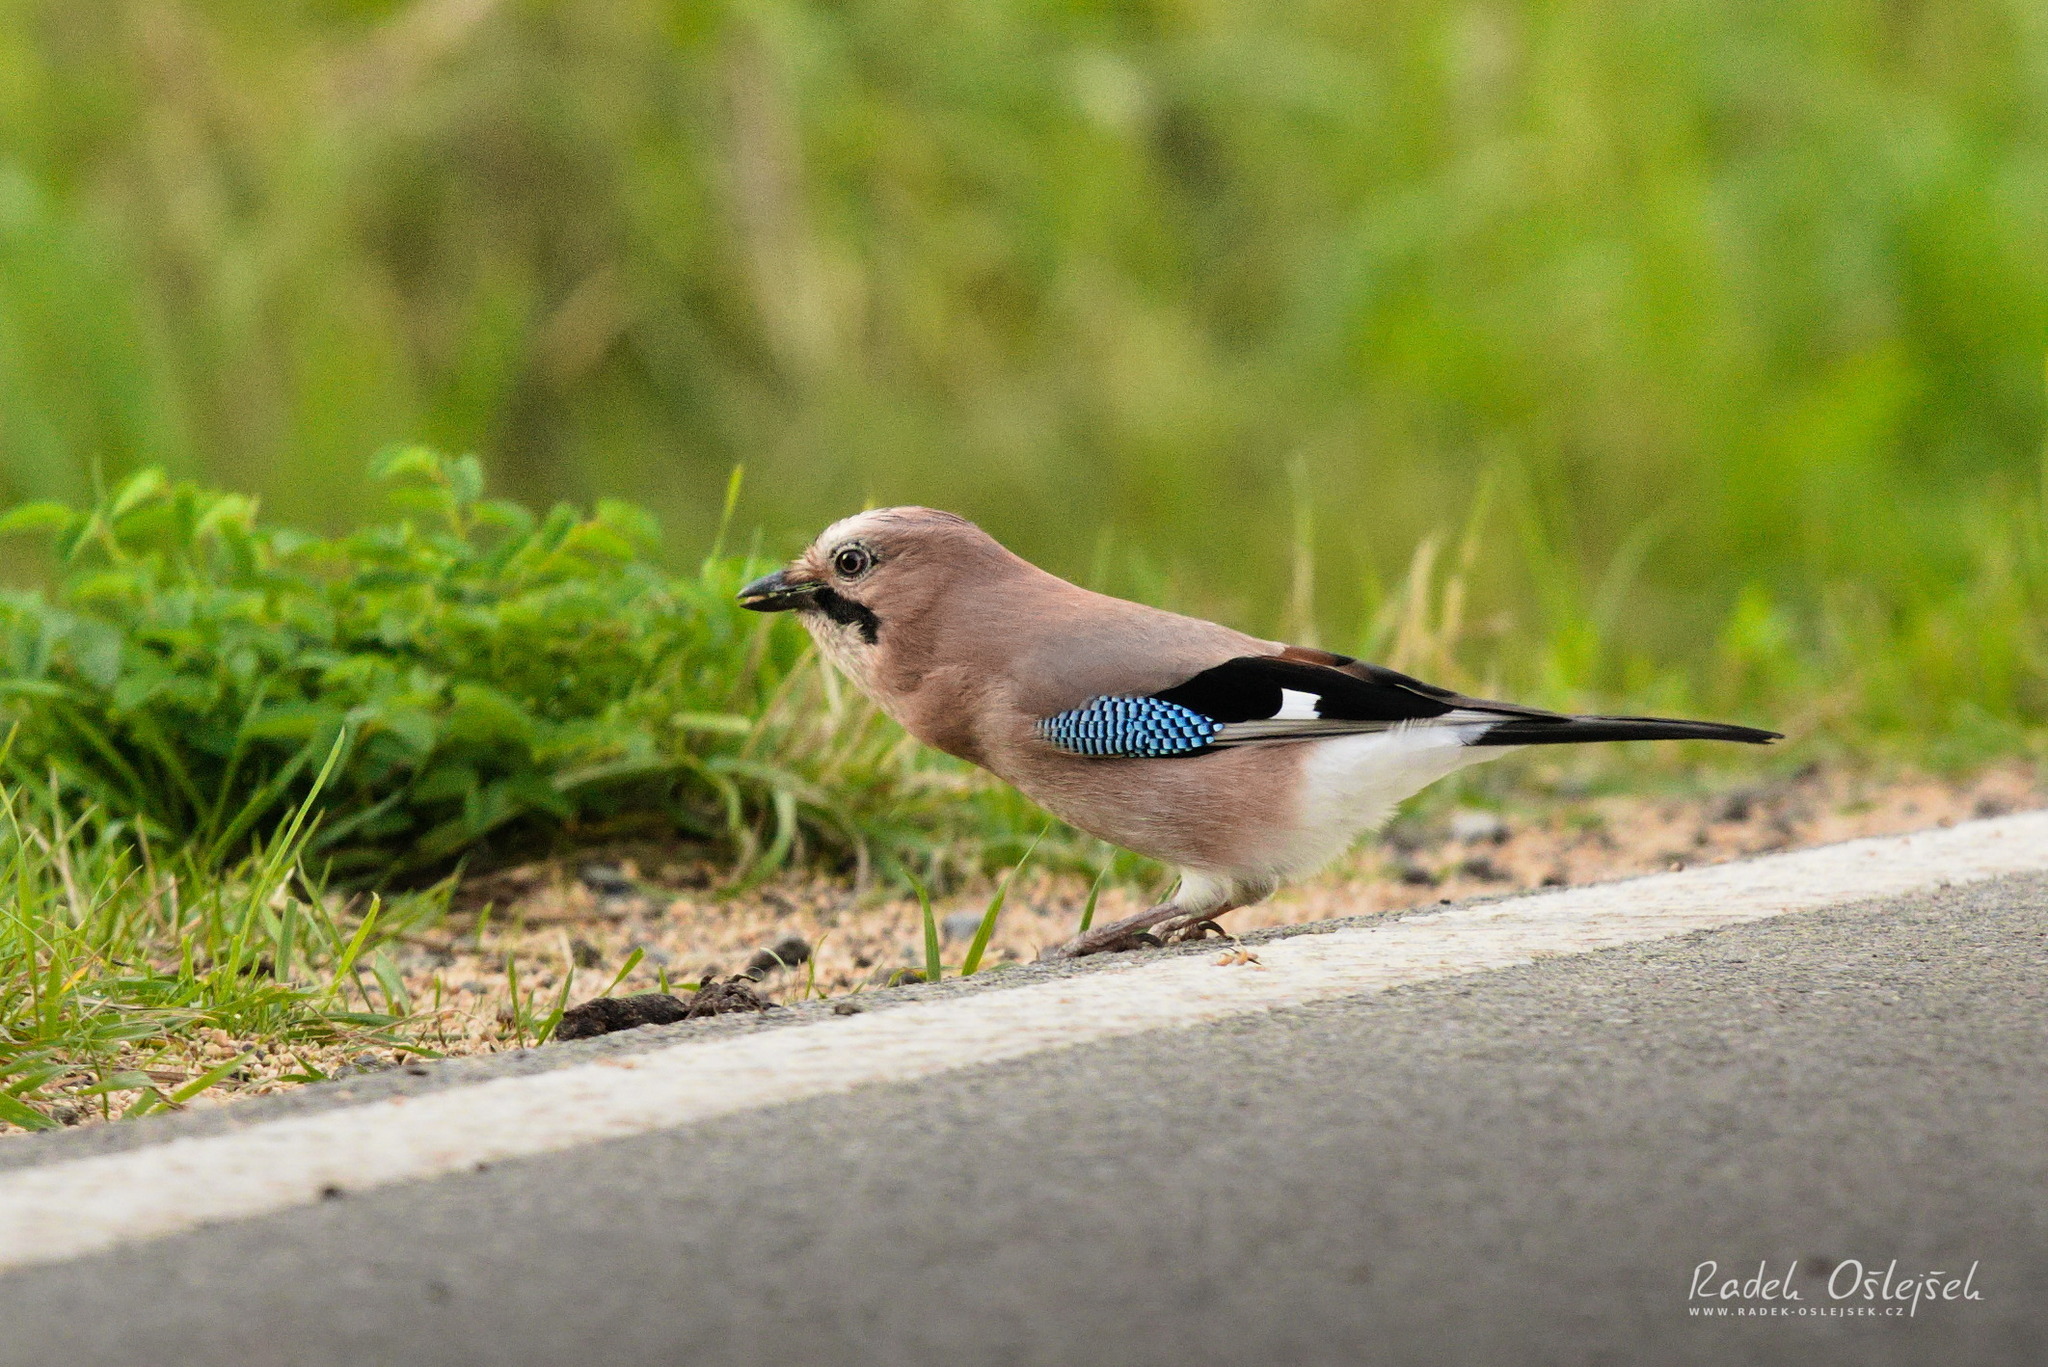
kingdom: Animalia
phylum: Chordata
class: Aves
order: Passeriformes
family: Corvidae
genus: Garrulus
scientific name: Garrulus glandarius
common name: Eurasian jay
